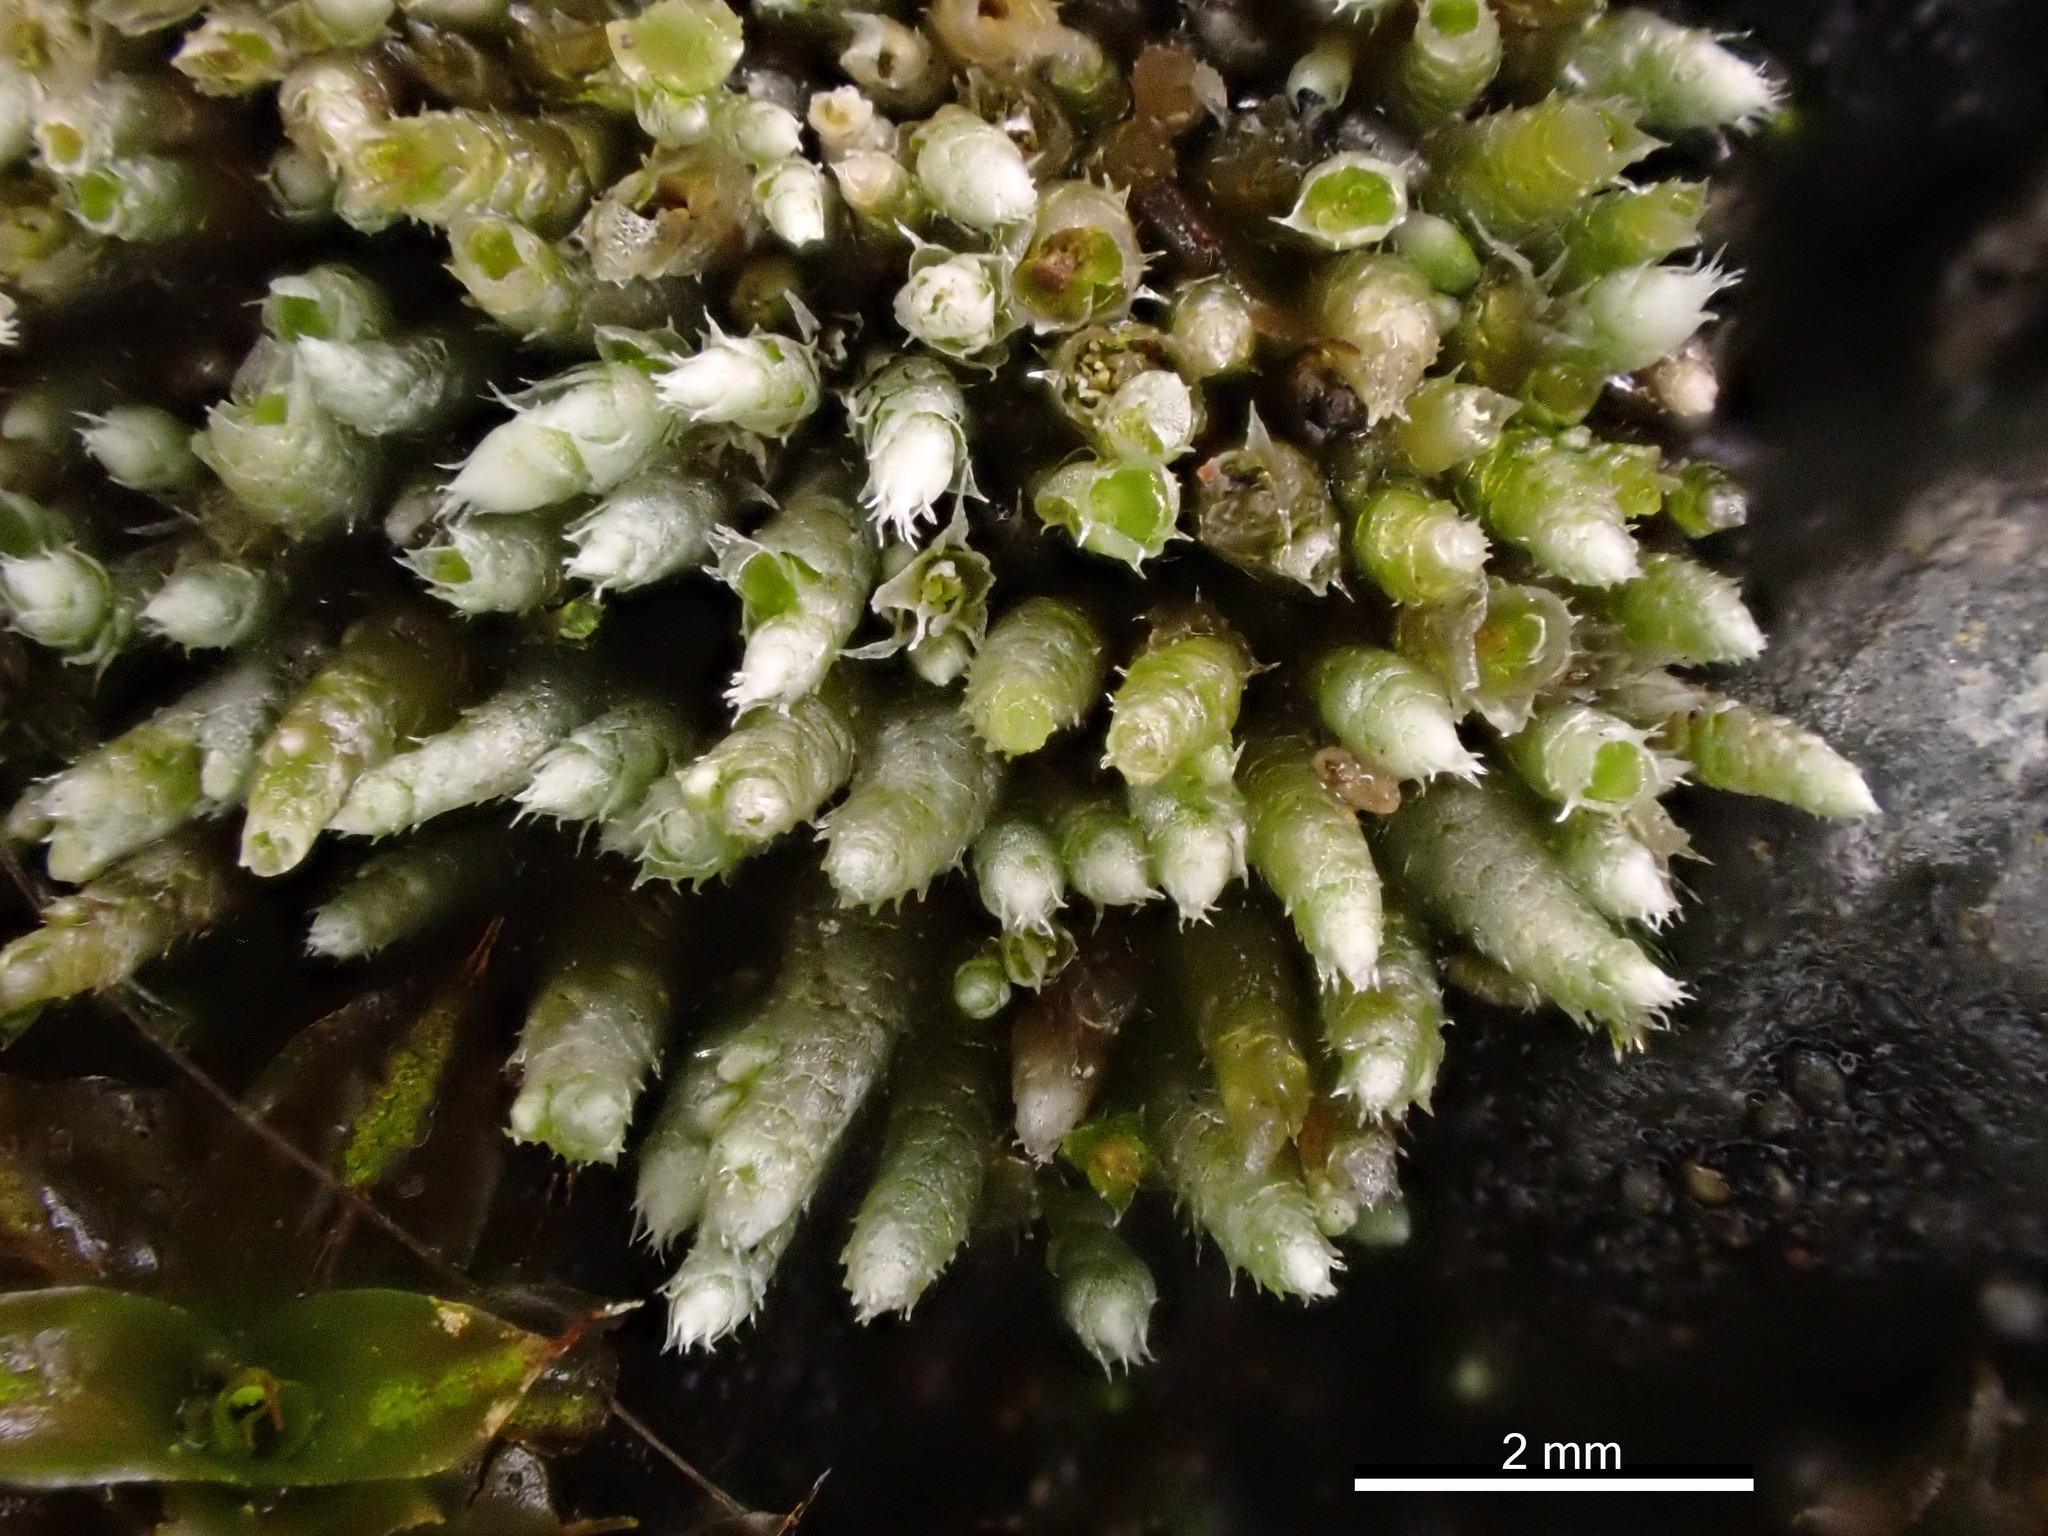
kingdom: Plantae
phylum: Bryophyta
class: Bryopsida
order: Bryales
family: Bryaceae
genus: Bryum
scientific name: Bryum argenteum
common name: Silver-moss
